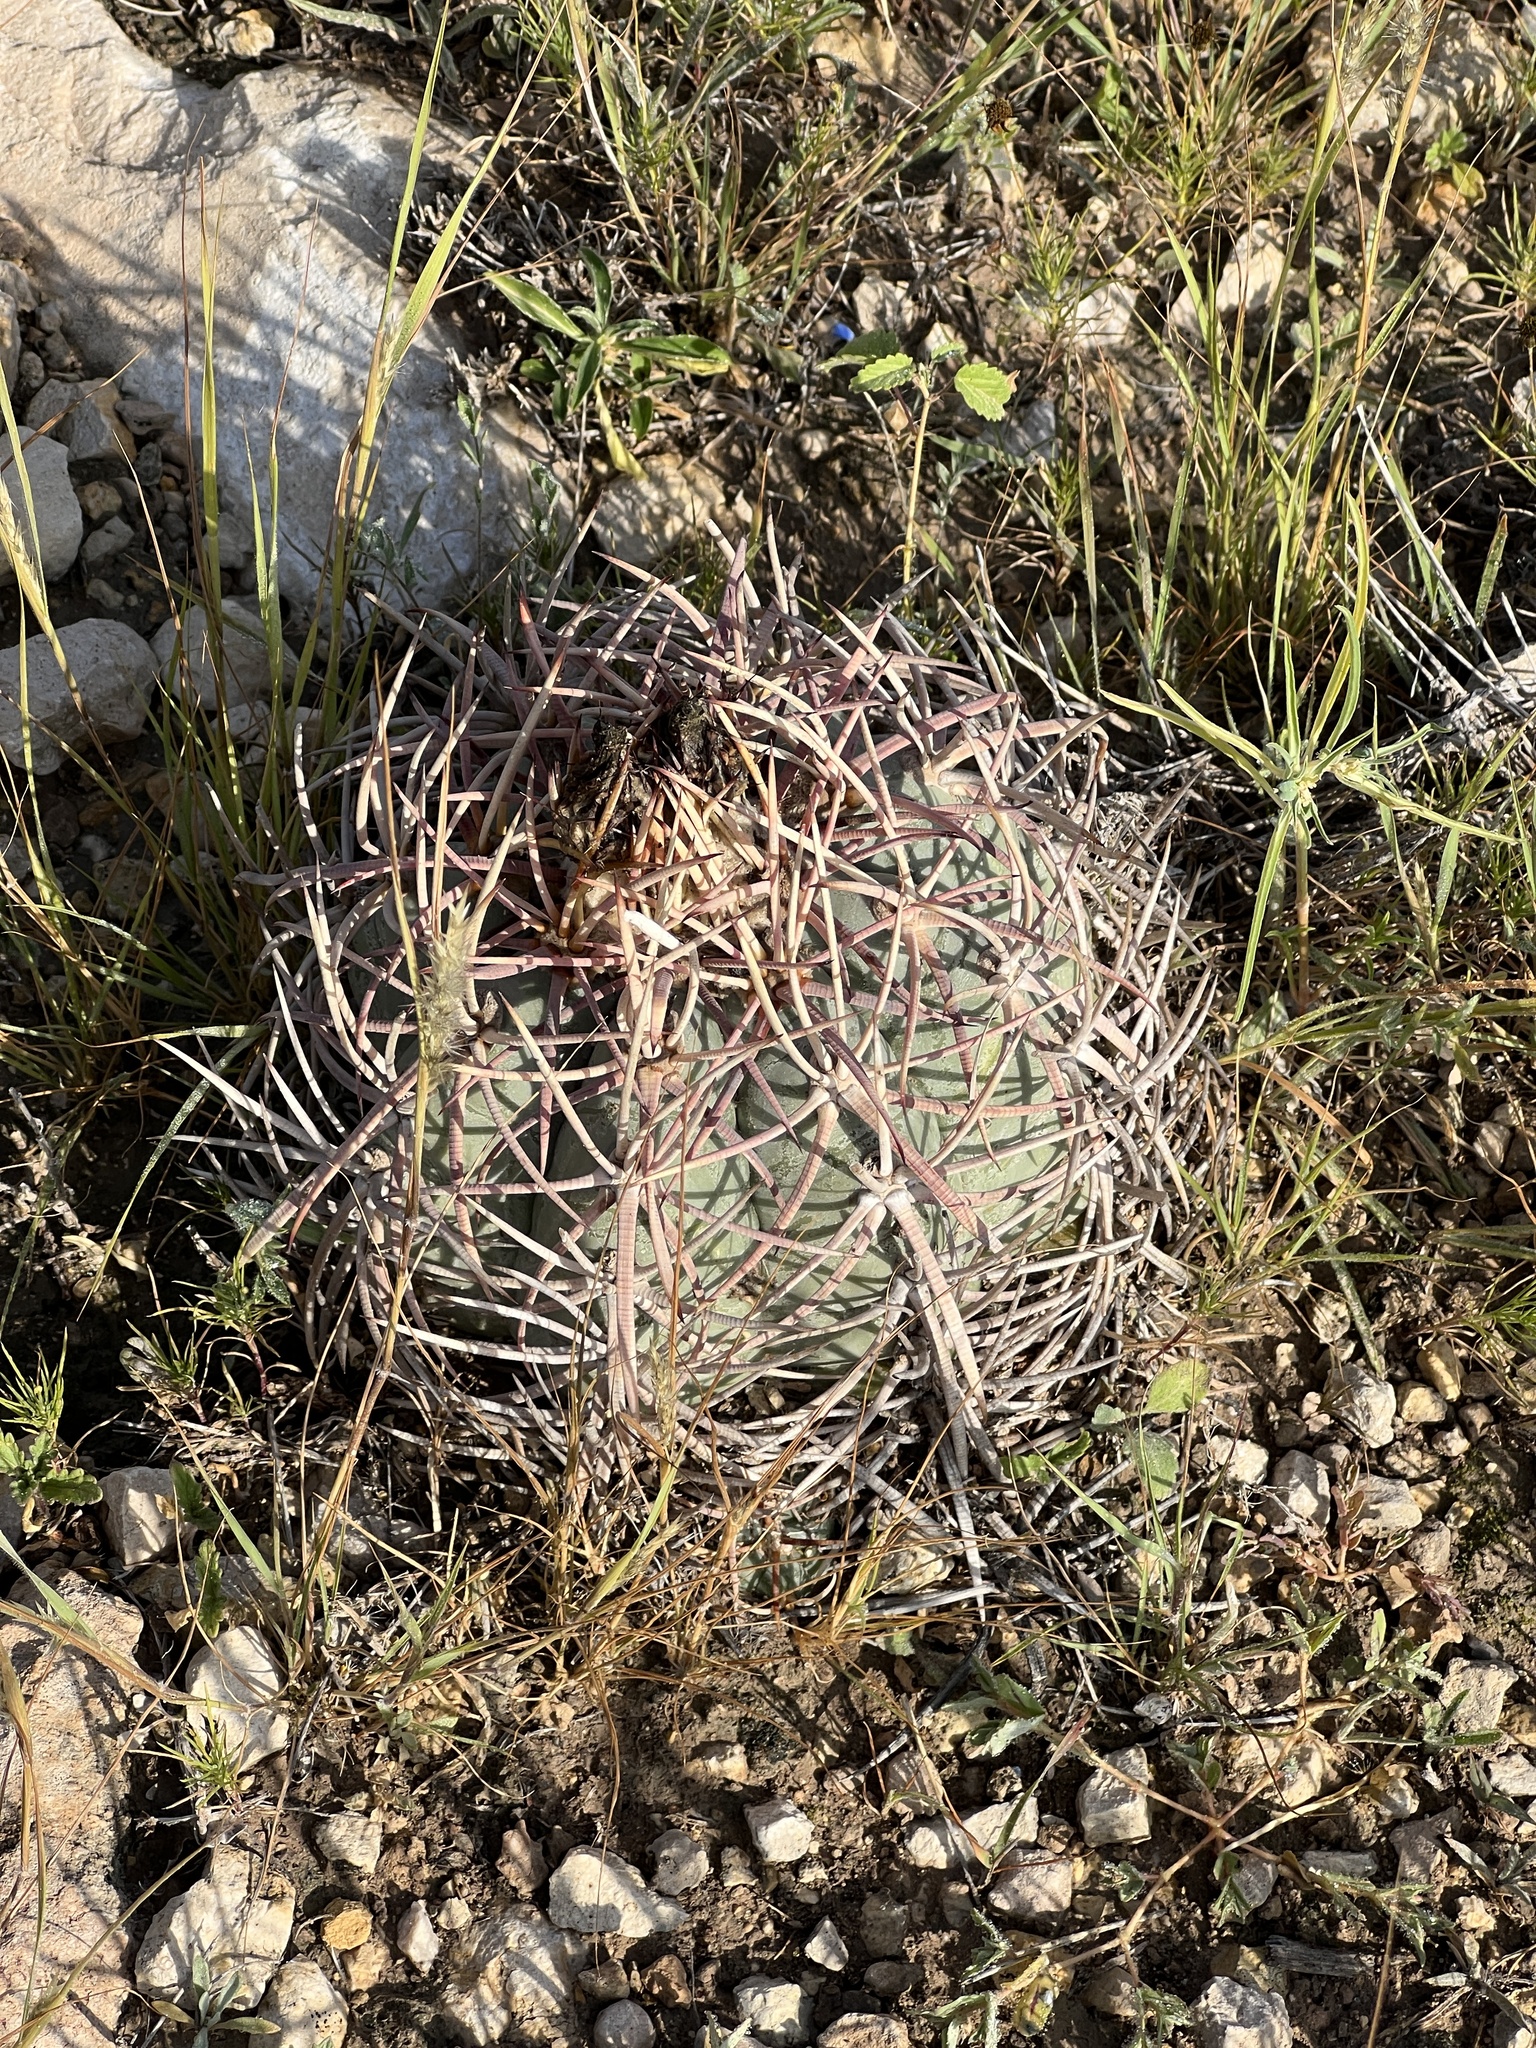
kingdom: Plantae
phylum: Tracheophyta
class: Magnoliopsida
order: Caryophyllales
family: Cactaceae
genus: Echinocactus
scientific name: Echinocactus horizonthalonius
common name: Devilshead
